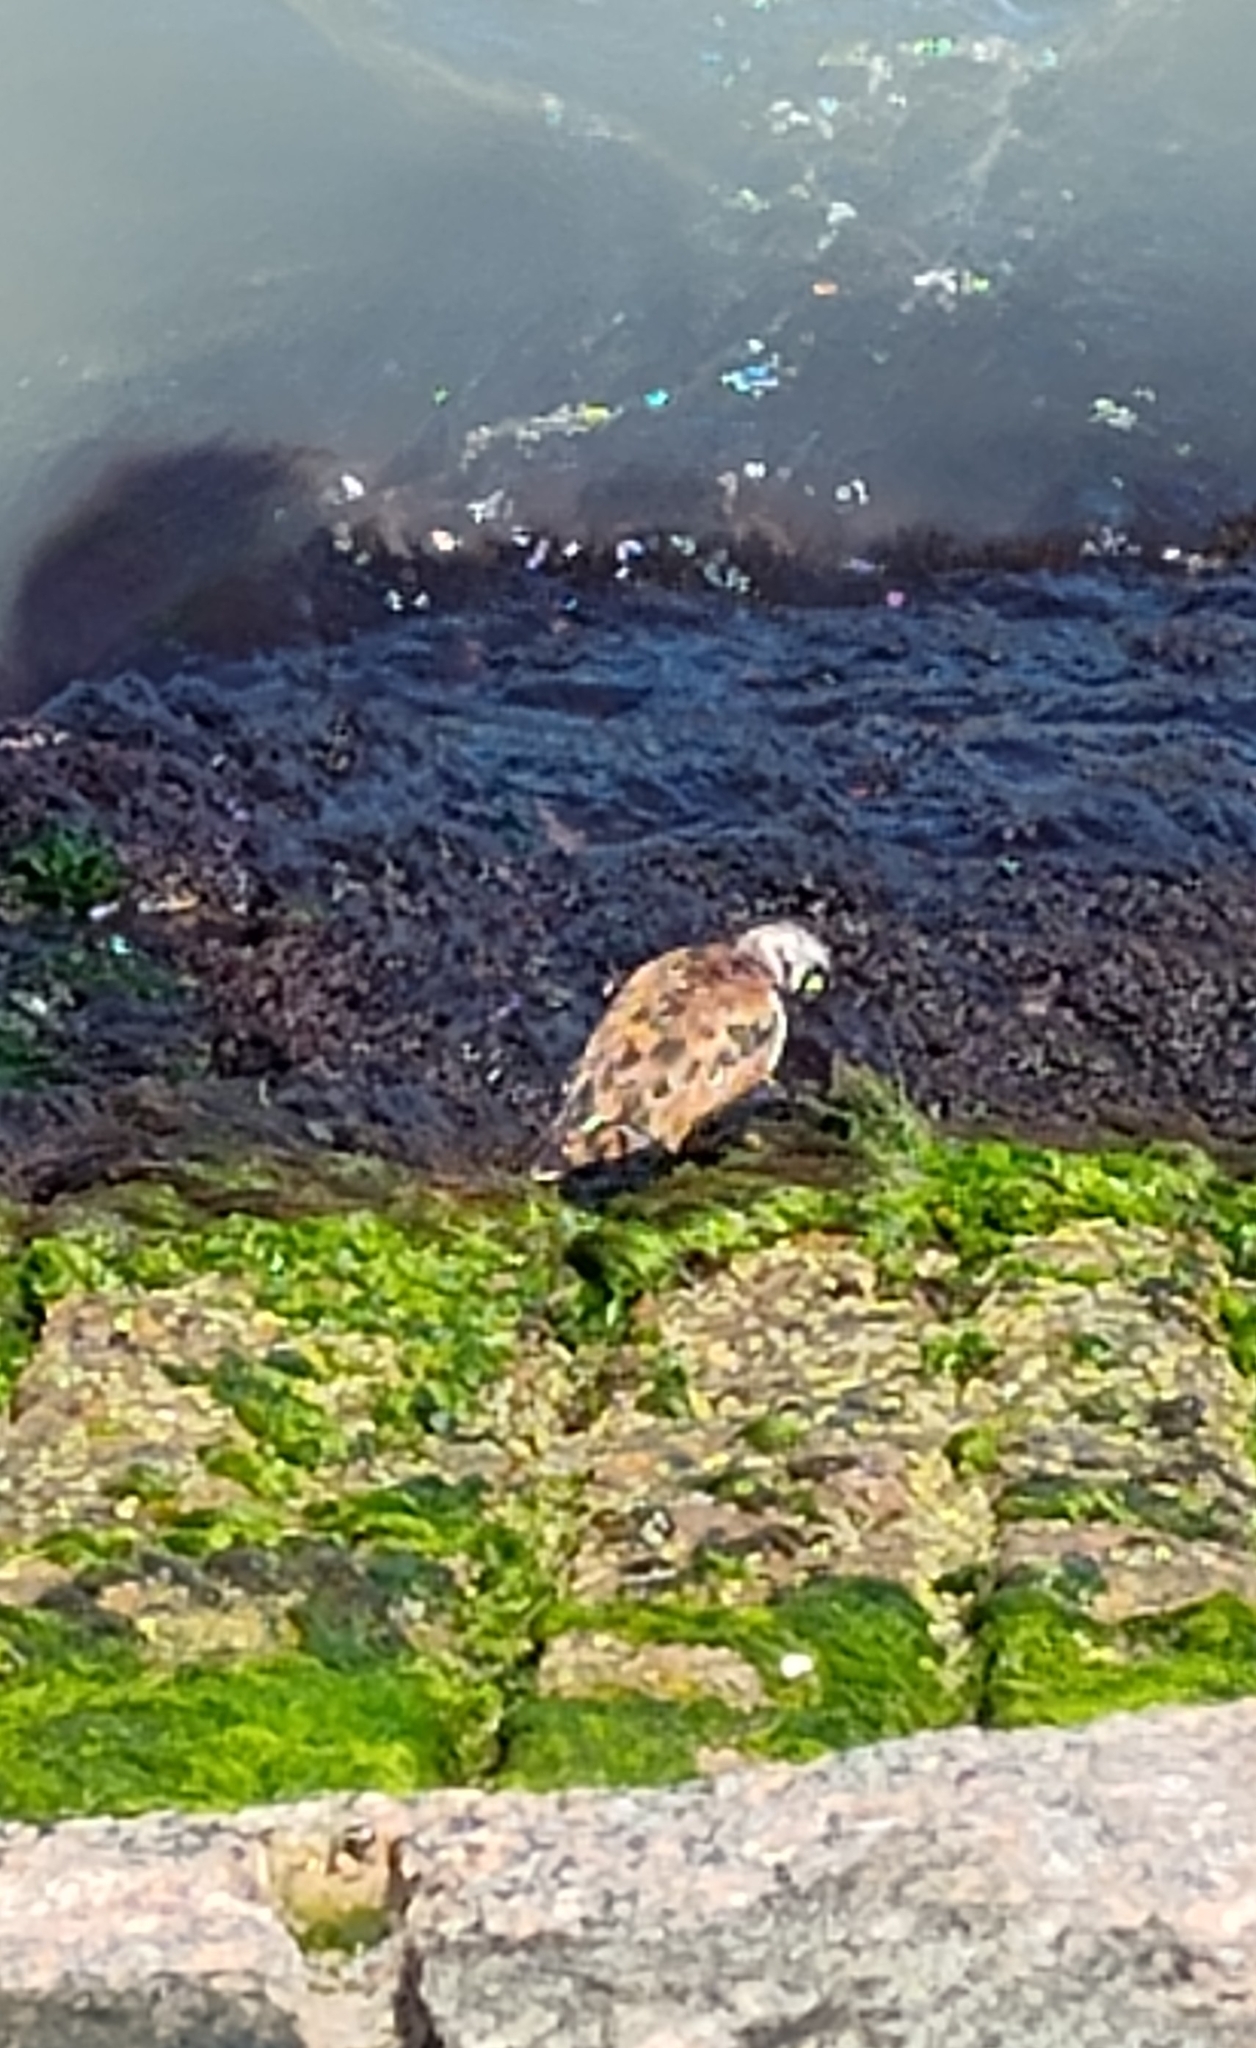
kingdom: Animalia
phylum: Chordata
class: Aves
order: Charadriiformes
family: Scolopacidae
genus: Arenaria
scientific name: Arenaria interpres
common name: Ruddy turnstone
